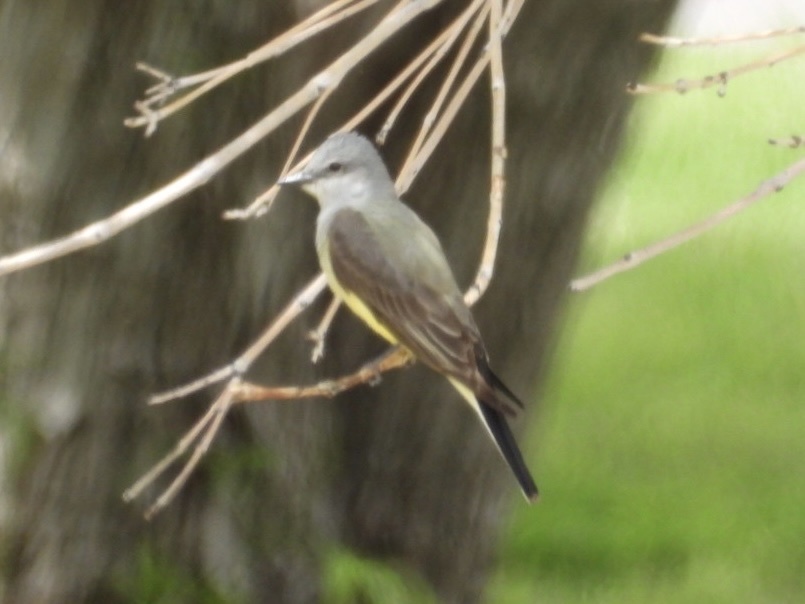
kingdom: Animalia
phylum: Chordata
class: Aves
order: Passeriformes
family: Tyrannidae
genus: Tyrannus
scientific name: Tyrannus verticalis
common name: Western kingbird
